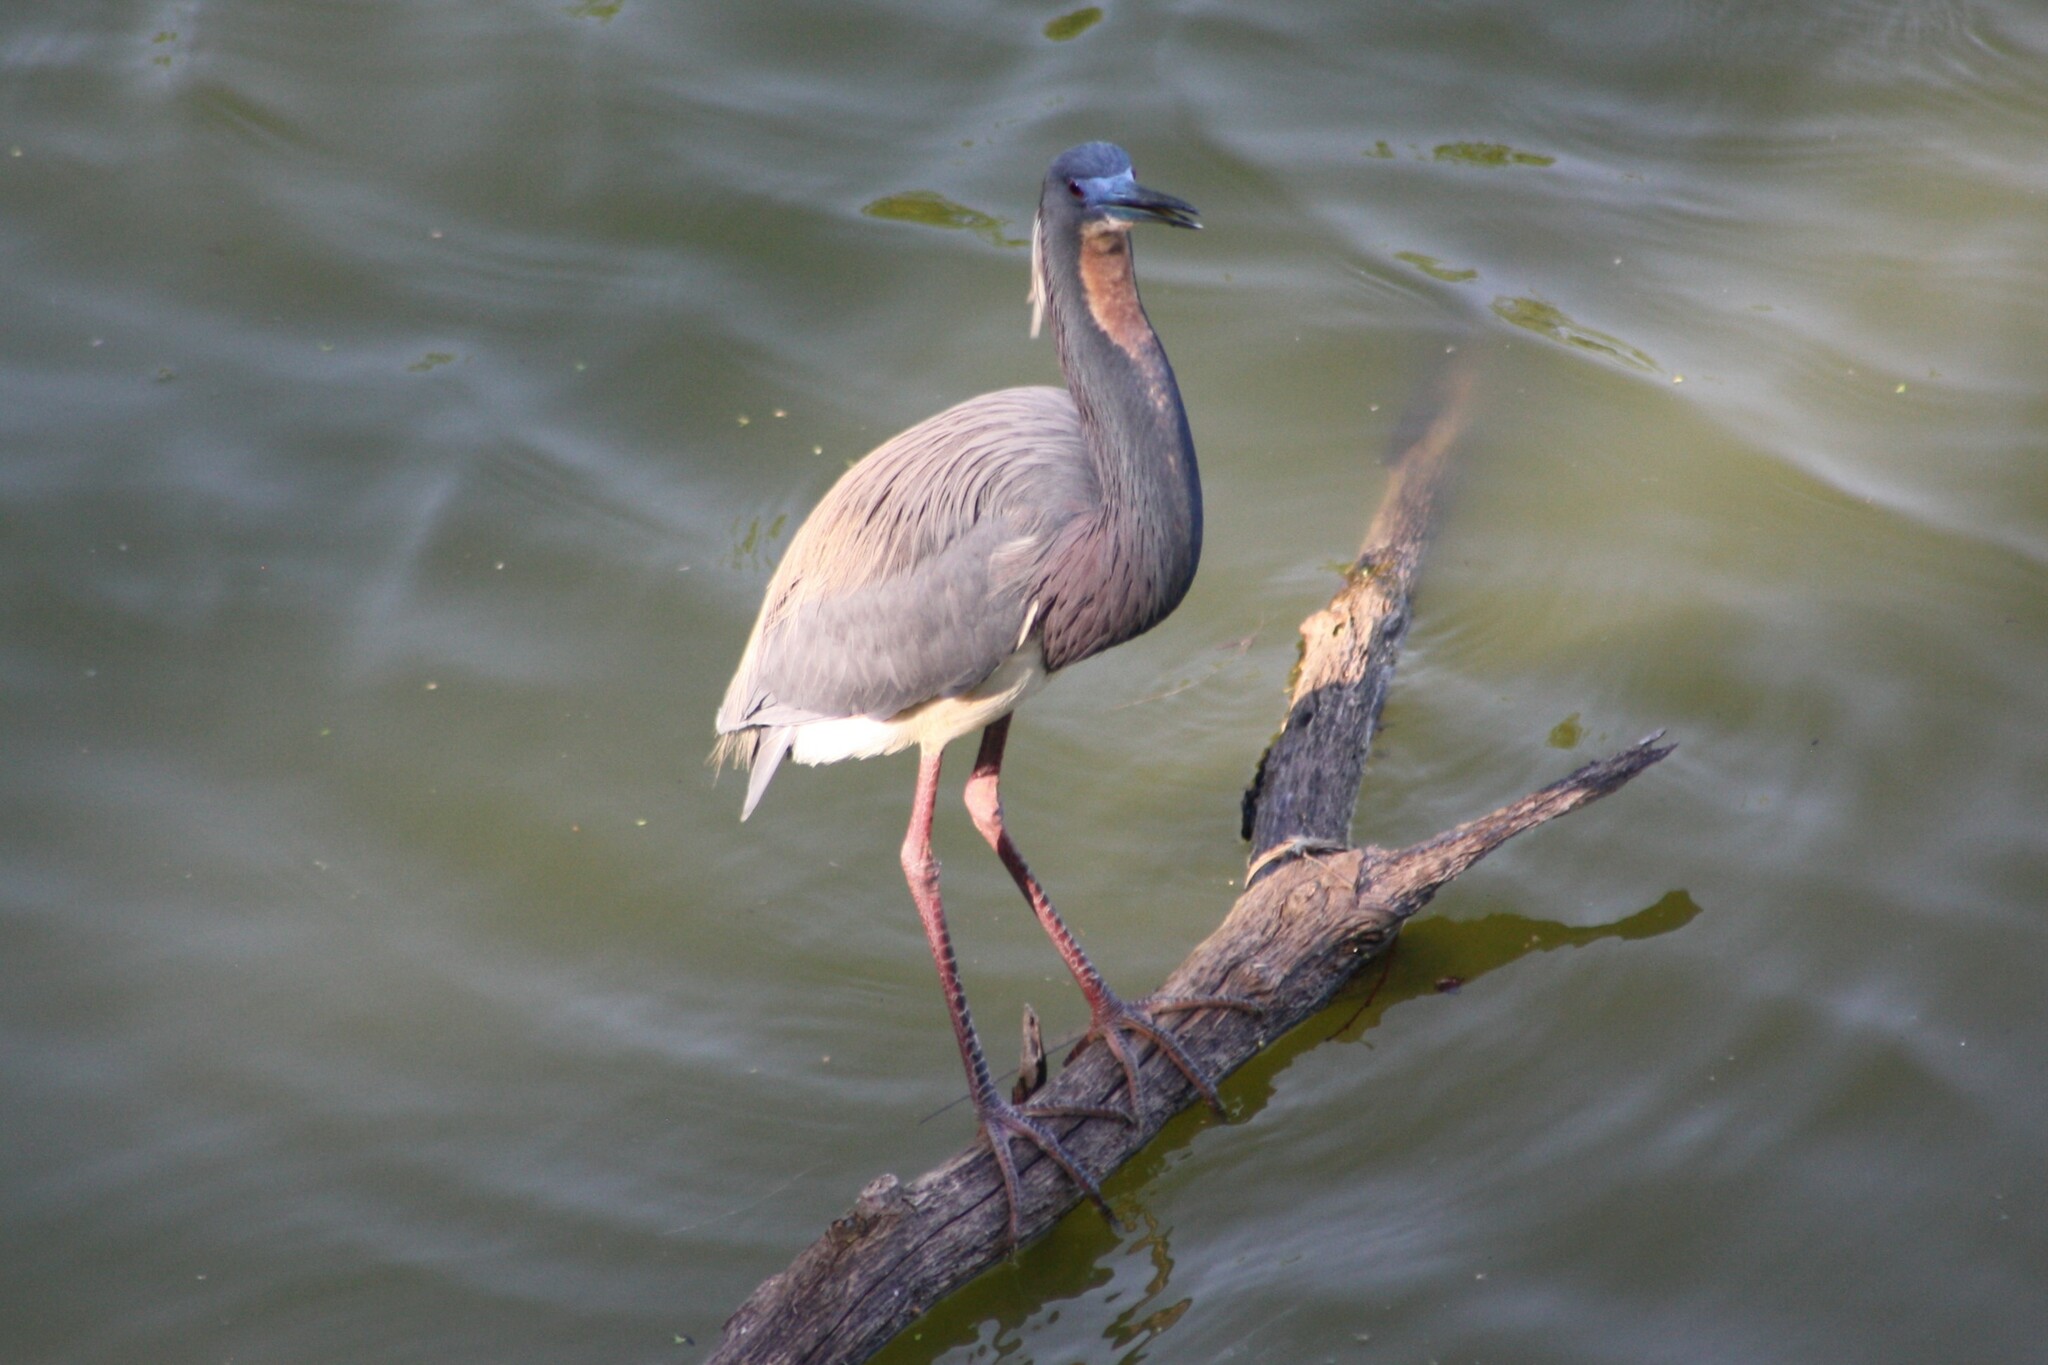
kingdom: Animalia
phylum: Chordata
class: Aves
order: Pelecaniformes
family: Ardeidae
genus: Egretta
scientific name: Egretta tricolor
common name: Tricolored heron
